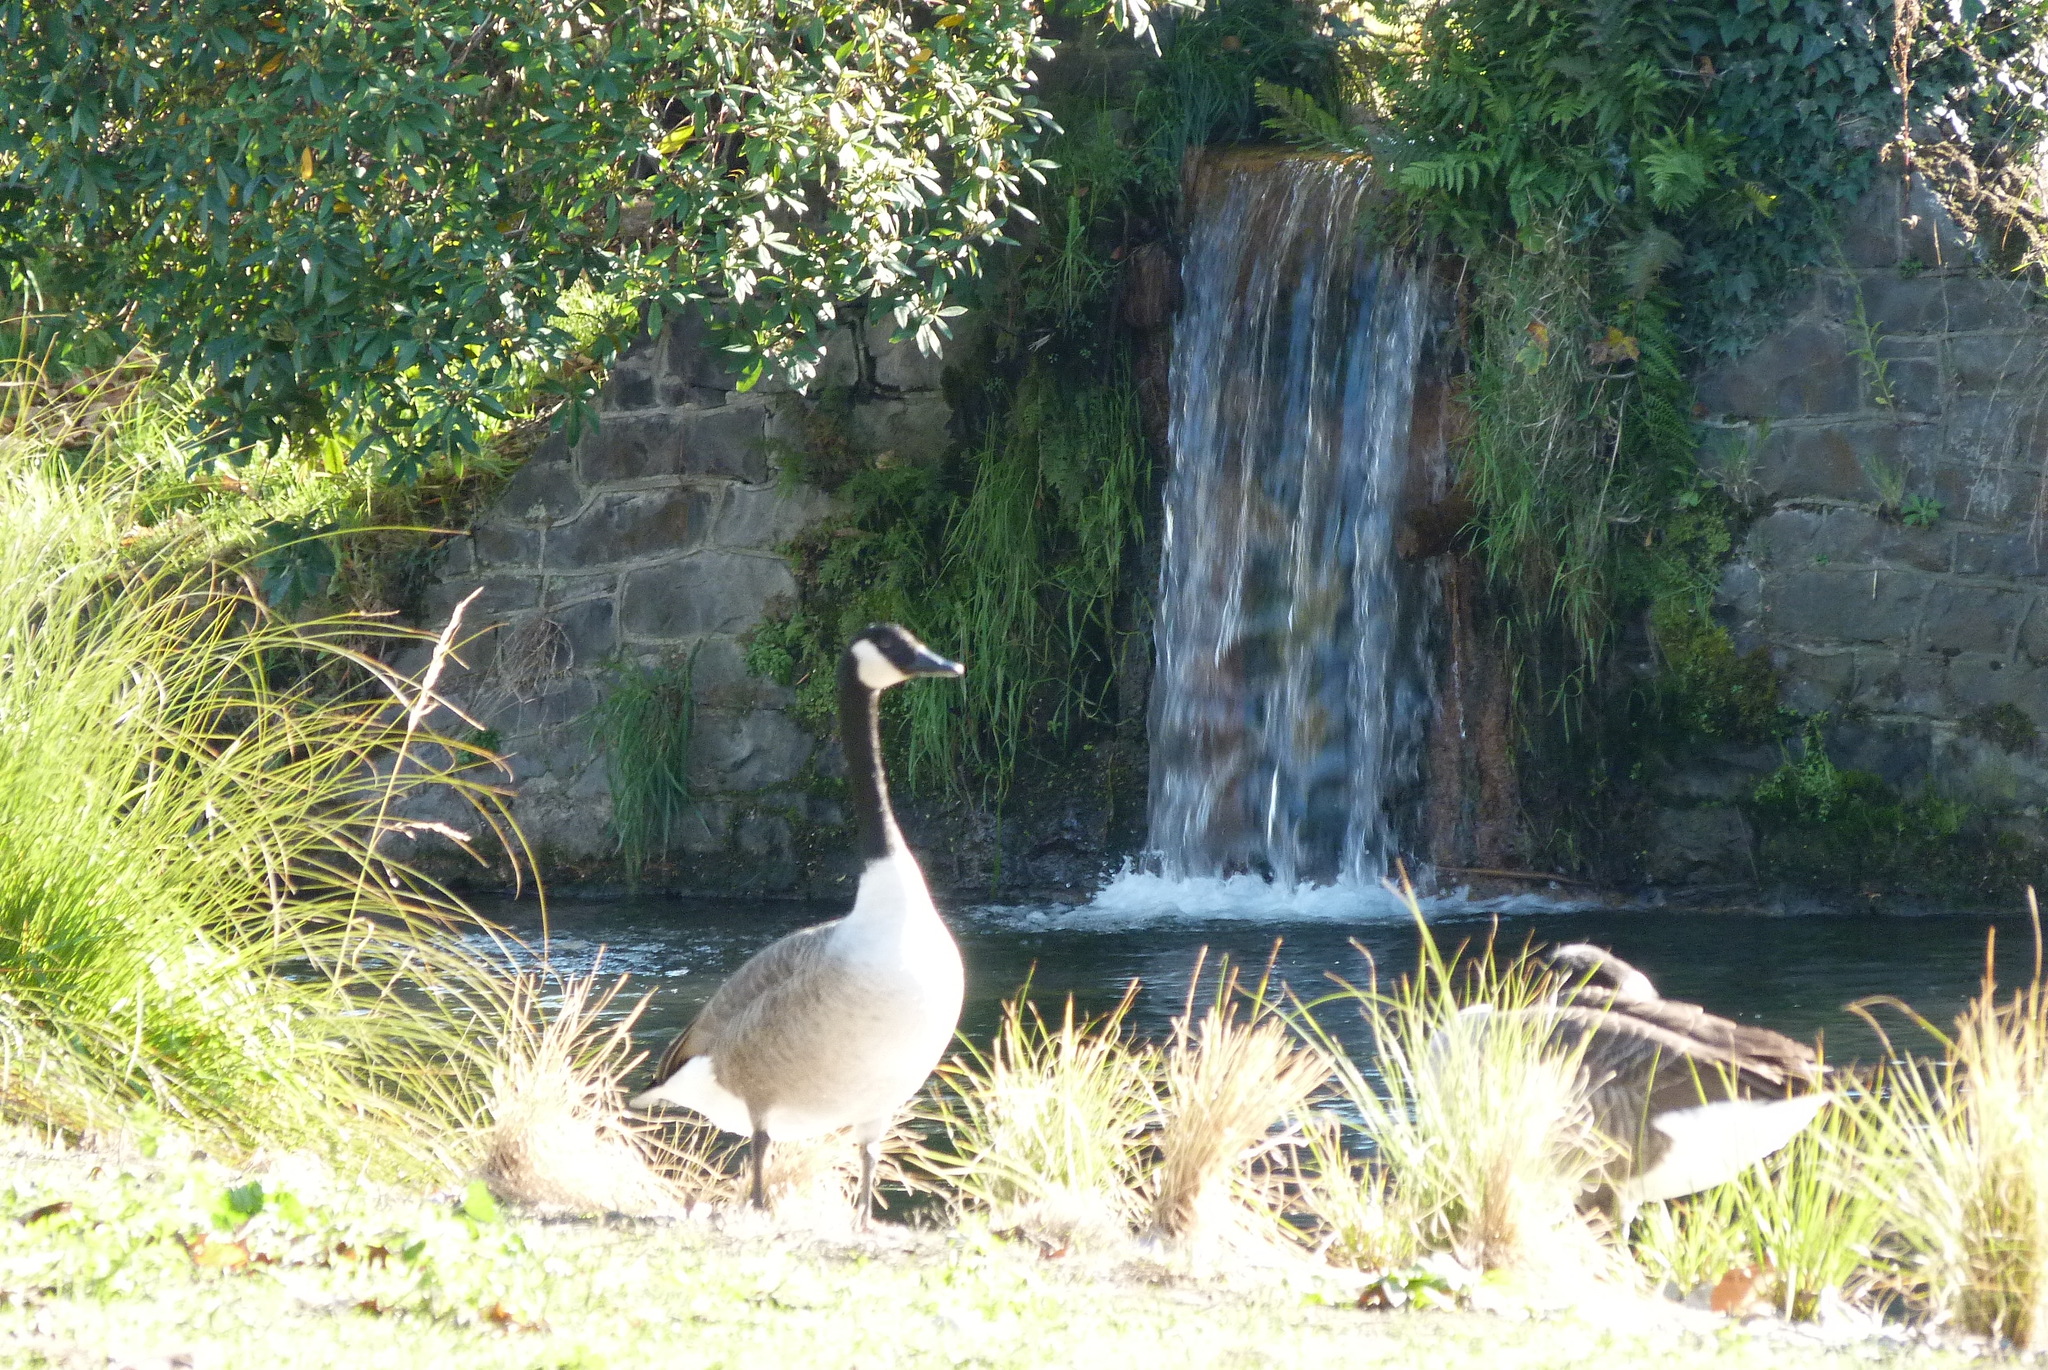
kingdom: Animalia
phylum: Chordata
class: Aves
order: Anseriformes
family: Anatidae
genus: Branta
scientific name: Branta canadensis
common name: Canada goose
